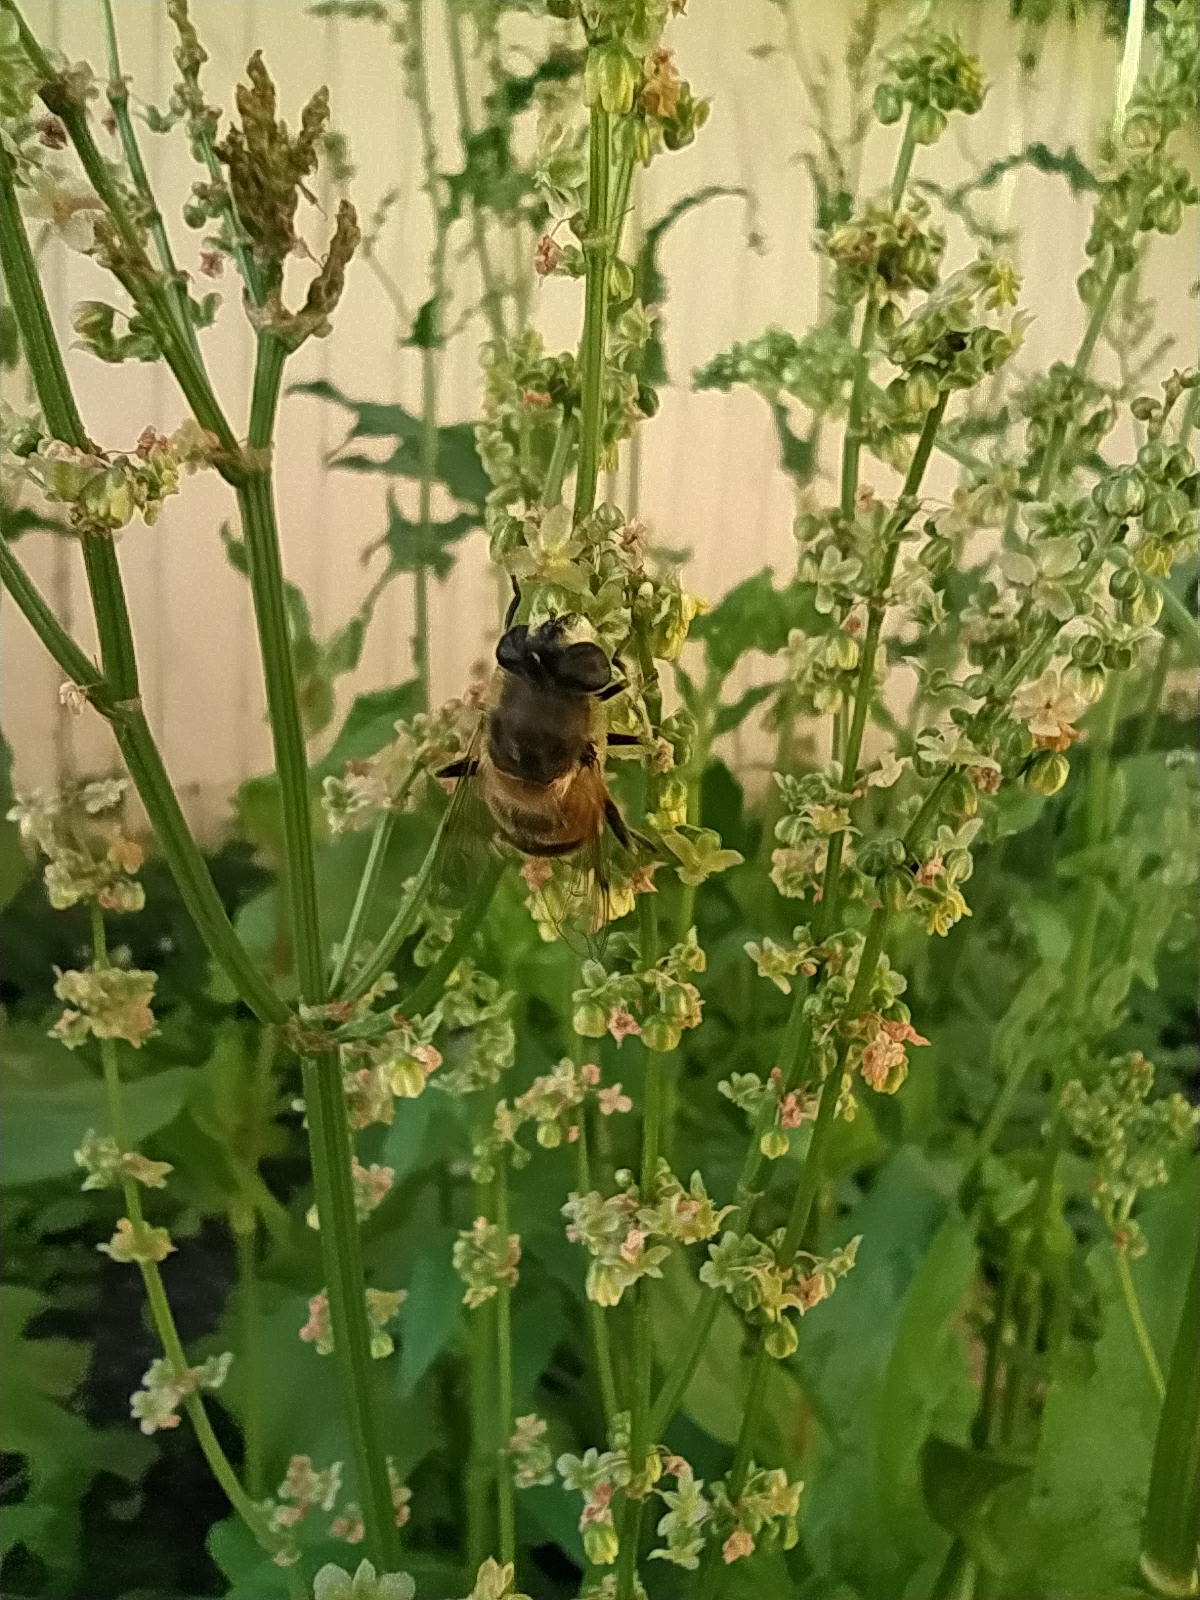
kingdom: Animalia
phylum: Arthropoda
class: Insecta
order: Diptera
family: Syrphidae
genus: Eristalis
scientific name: Eristalis tenax
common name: Drone fly
